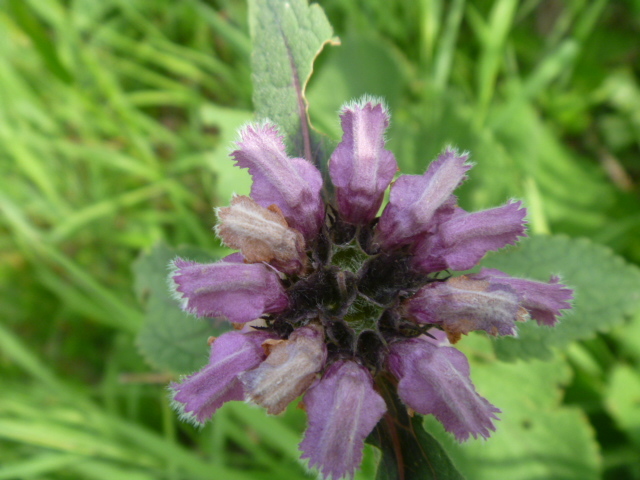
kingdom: Plantae
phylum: Tracheophyta
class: Magnoliopsida
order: Lamiales
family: Lamiaceae
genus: Phlomoides
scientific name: Phlomoides koraiensis
